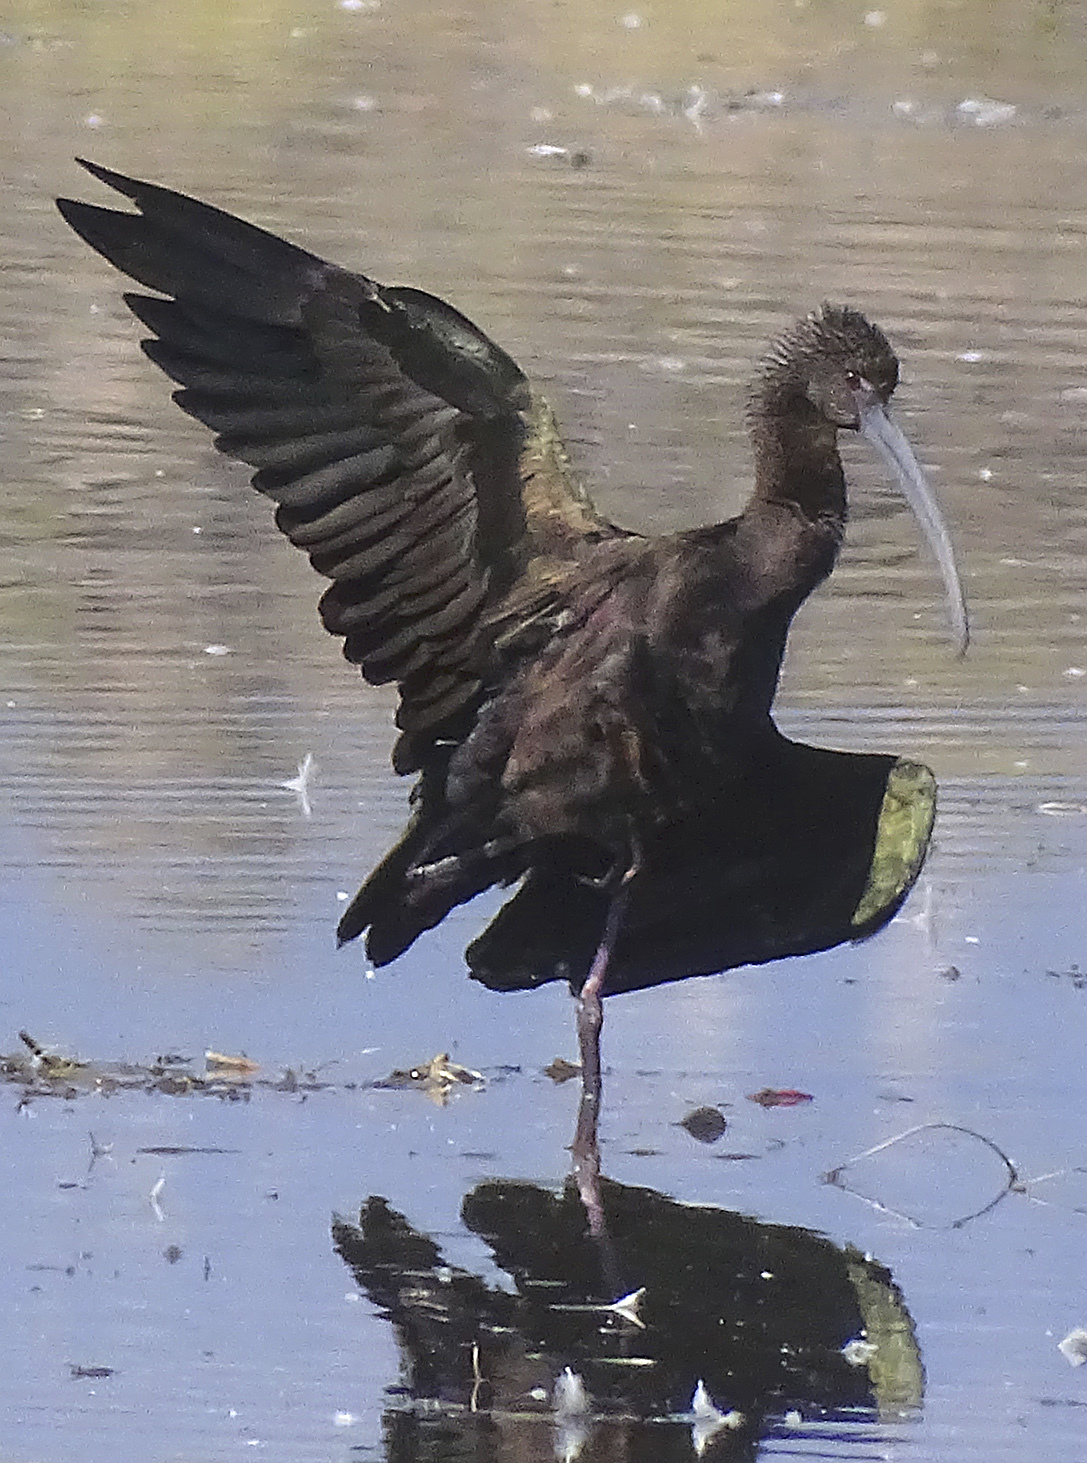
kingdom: Animalia
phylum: Chordata
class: Aves
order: Pelecaniformes
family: Threskiornithidae
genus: Plegadis
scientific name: Plegadis chihi
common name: White-faced ibis
